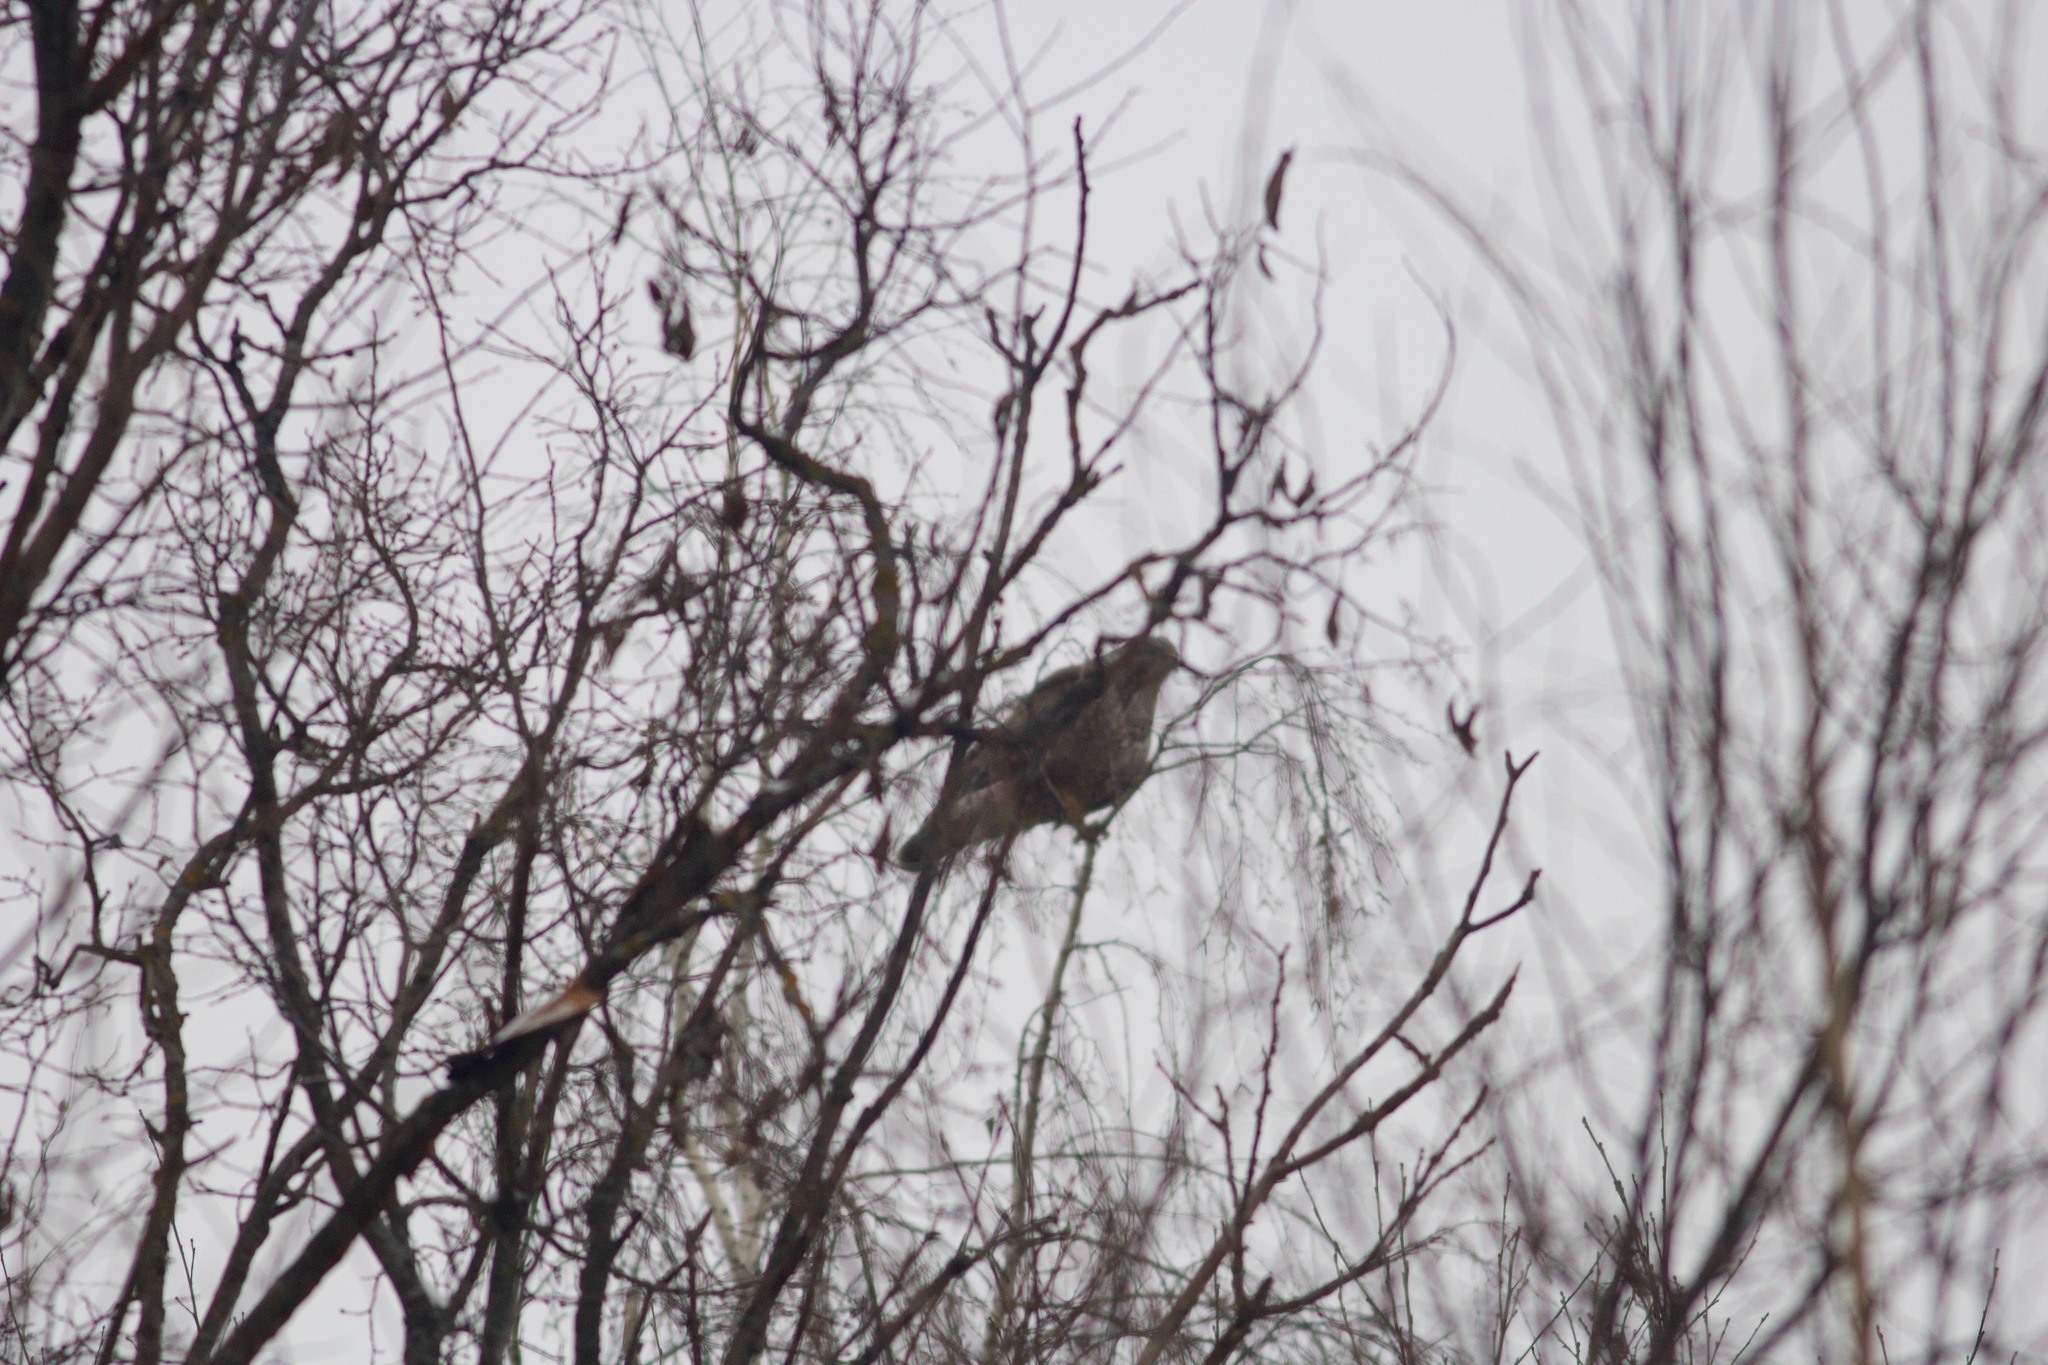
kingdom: Animalia
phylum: Chordata
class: Aves
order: Accipitriformes
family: Accipitridae
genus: Buteo
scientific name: Buteo buteo
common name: Common buzzard
